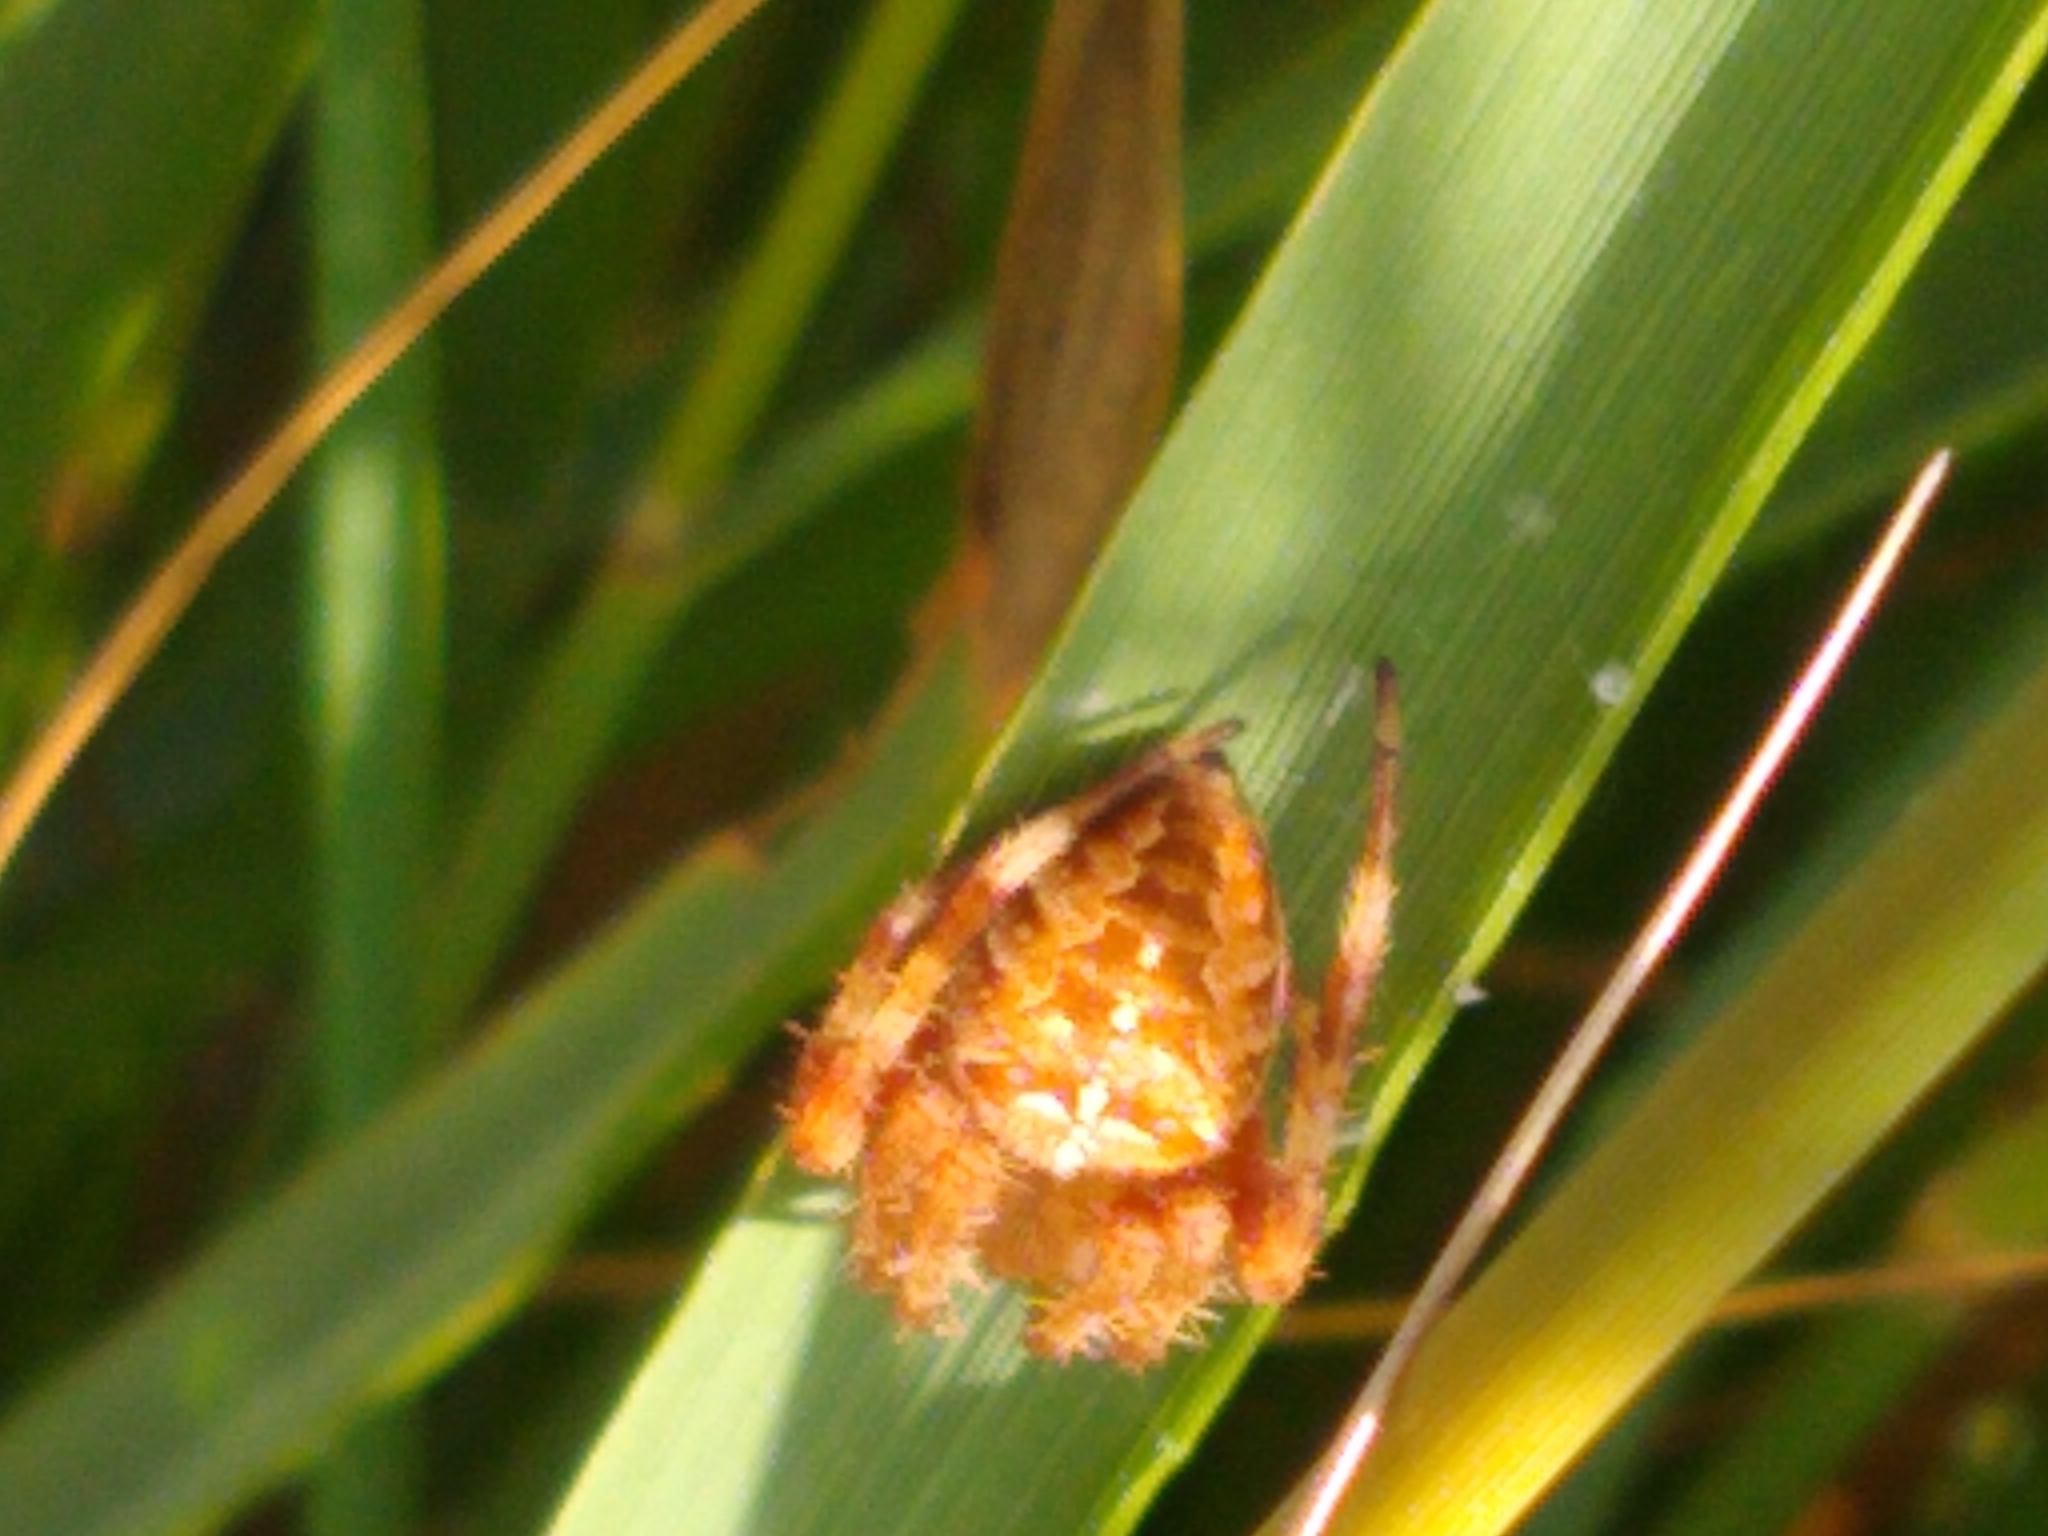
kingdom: Animalia
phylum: Arthropoda
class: Arachnida
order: Araneae
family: Araneidae
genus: Araneus
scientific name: Araneus diadematus
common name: Cross orbweaver
